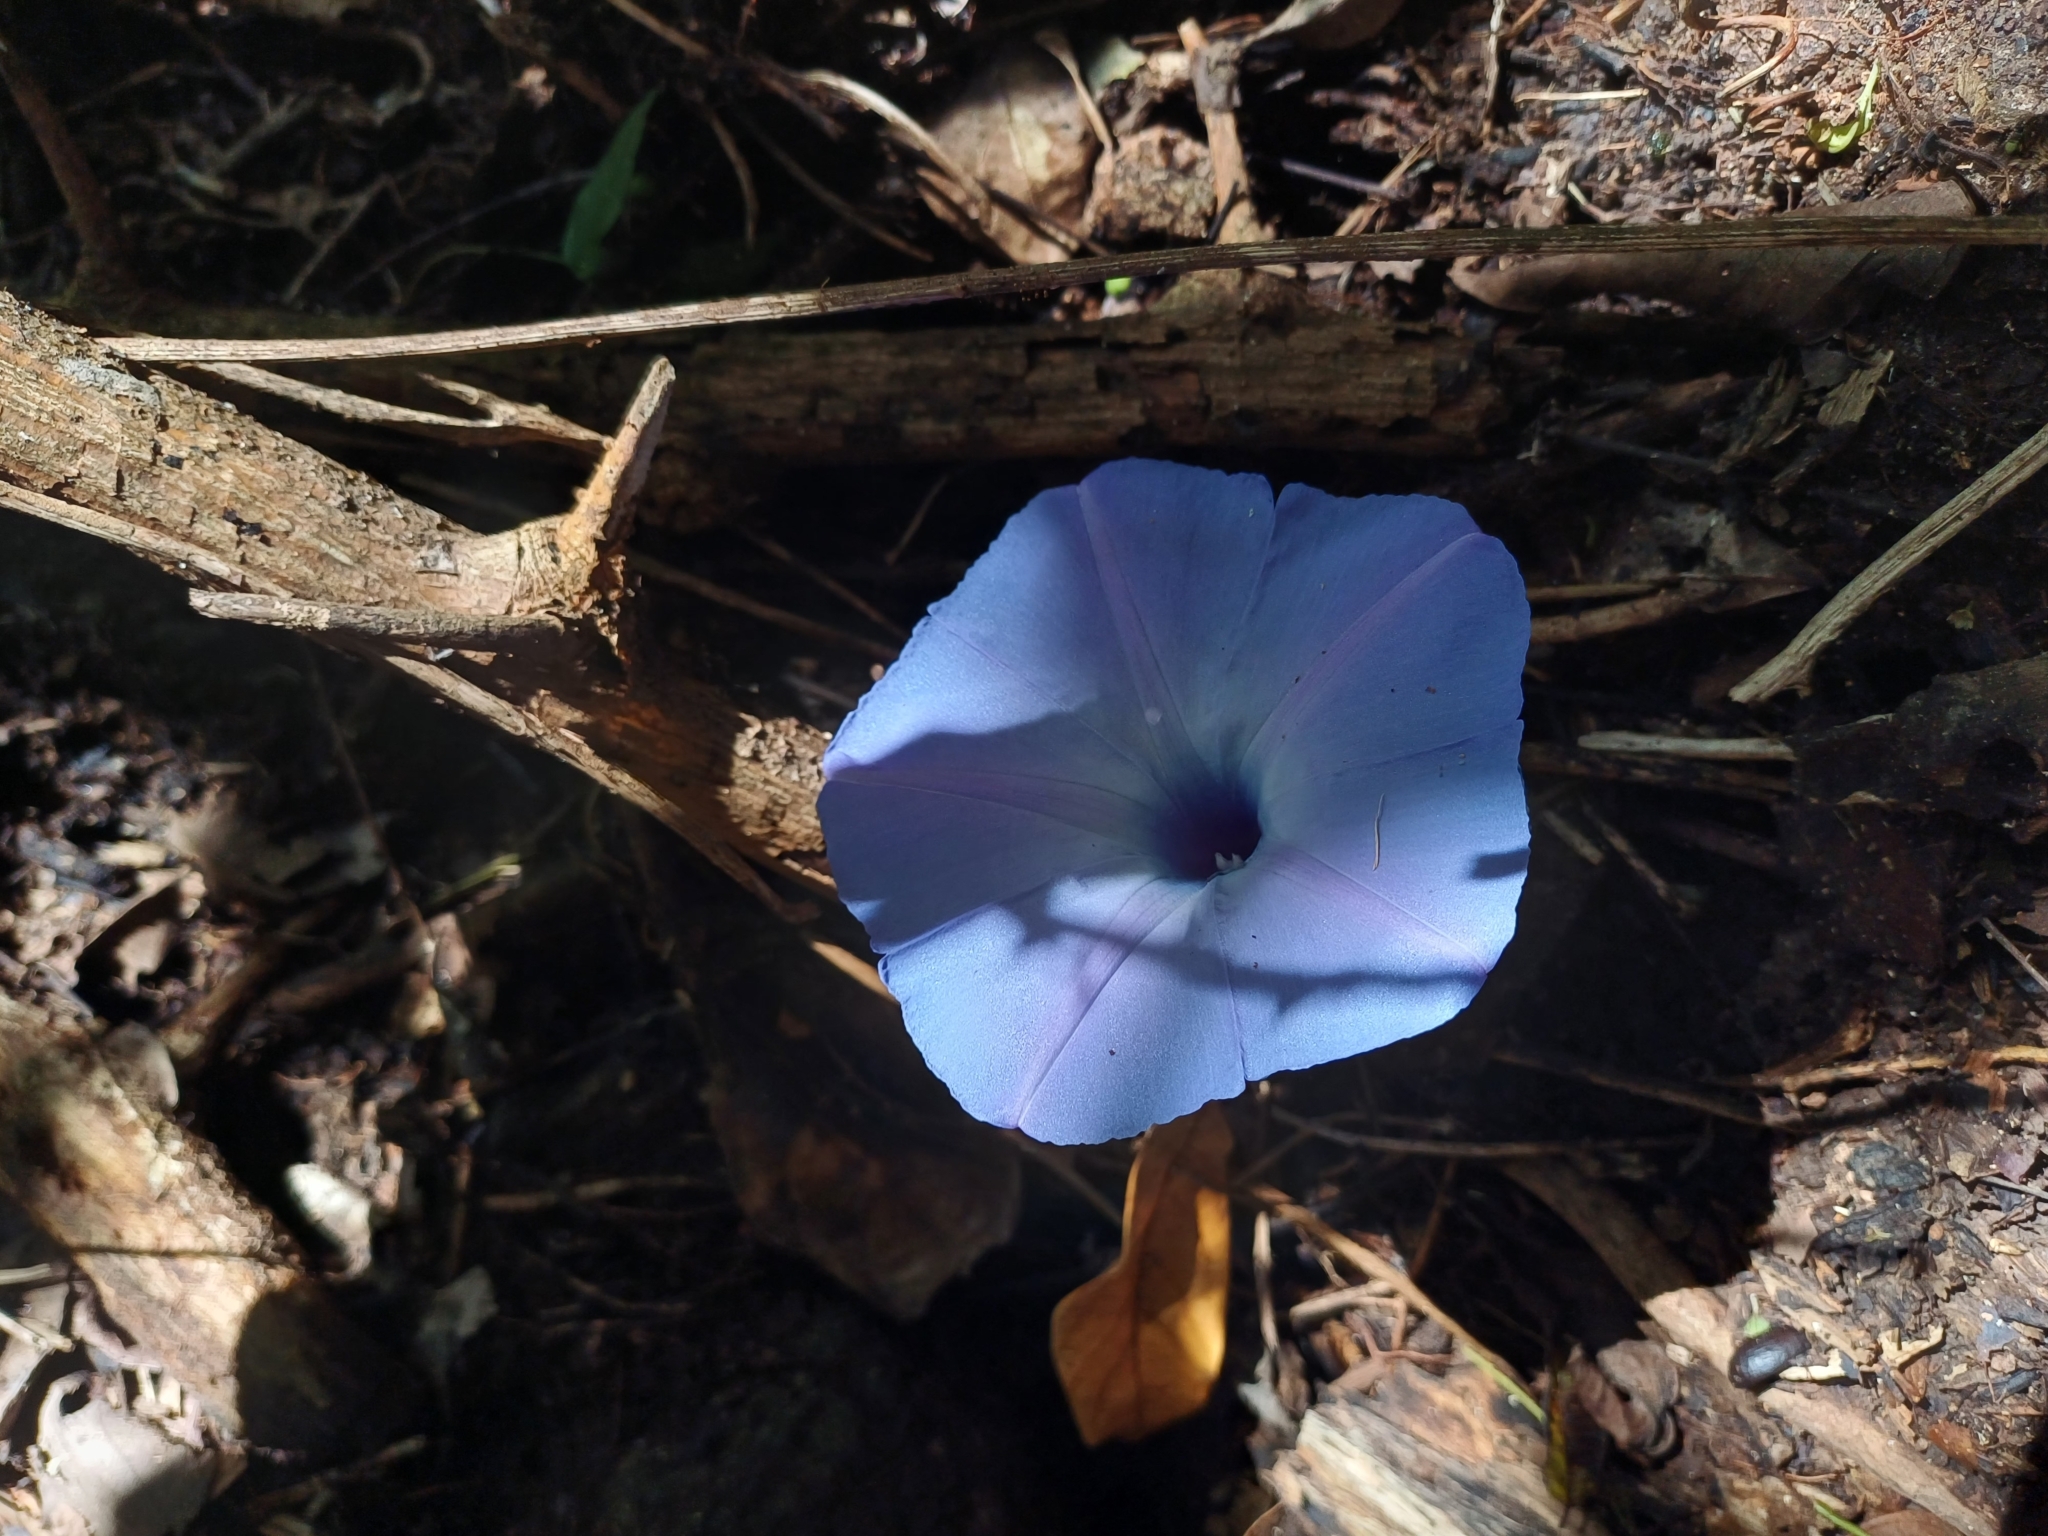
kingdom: Plantae
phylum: Tracheophyta
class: Magnoliopsida
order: Solanales
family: Convolvulaceae
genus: Ipomoea
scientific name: Ipomoea regnellii
